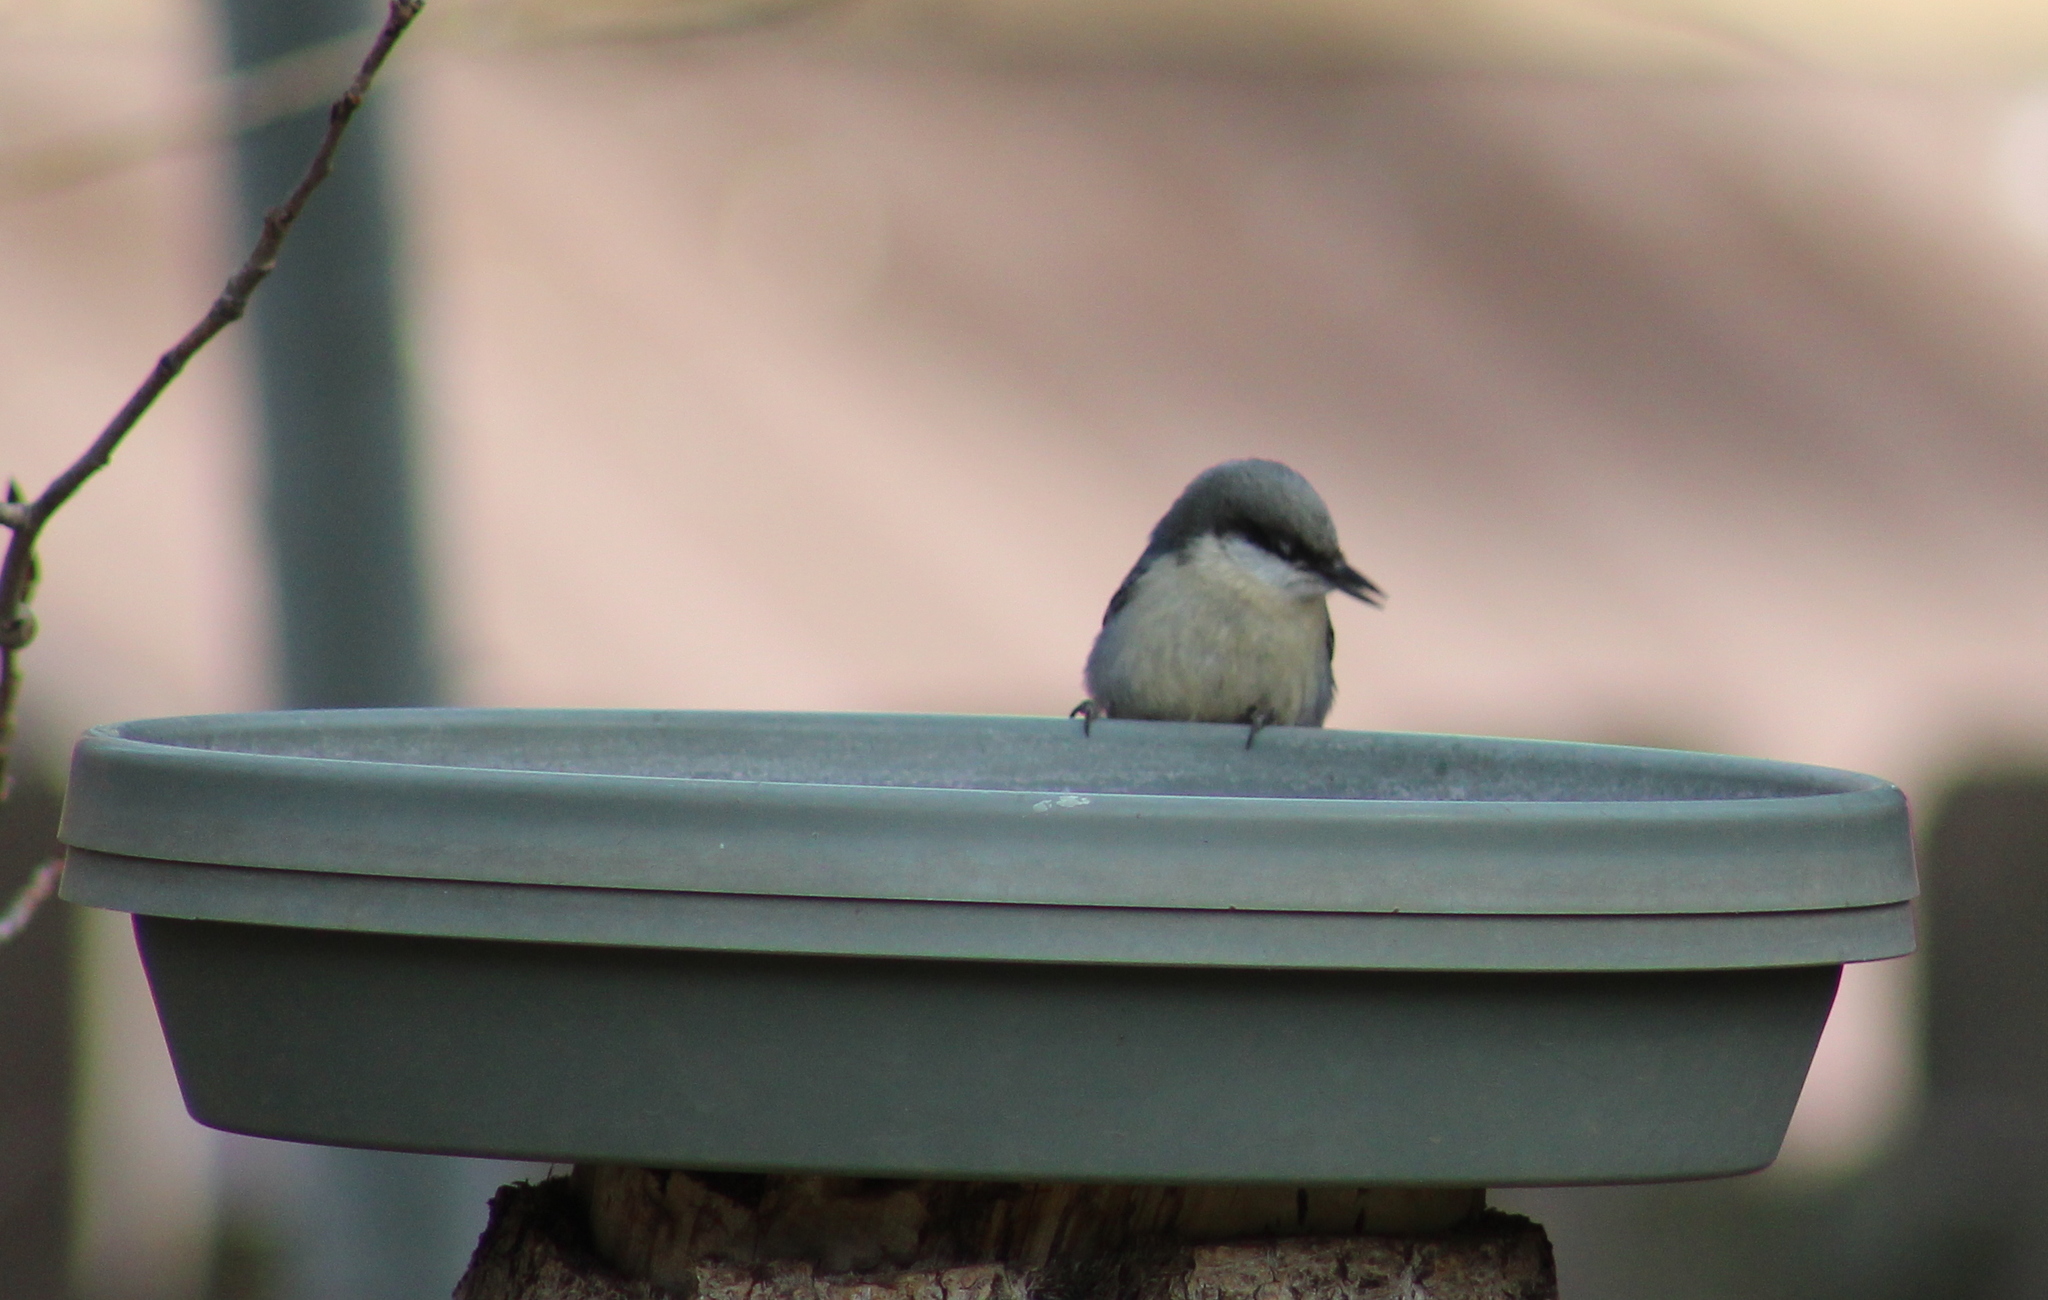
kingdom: Animalia
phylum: Chordata
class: Aves
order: Passeriformes
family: Sittidae
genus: Sitta
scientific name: Sitta pygmaea
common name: Pygmy nuthatch
